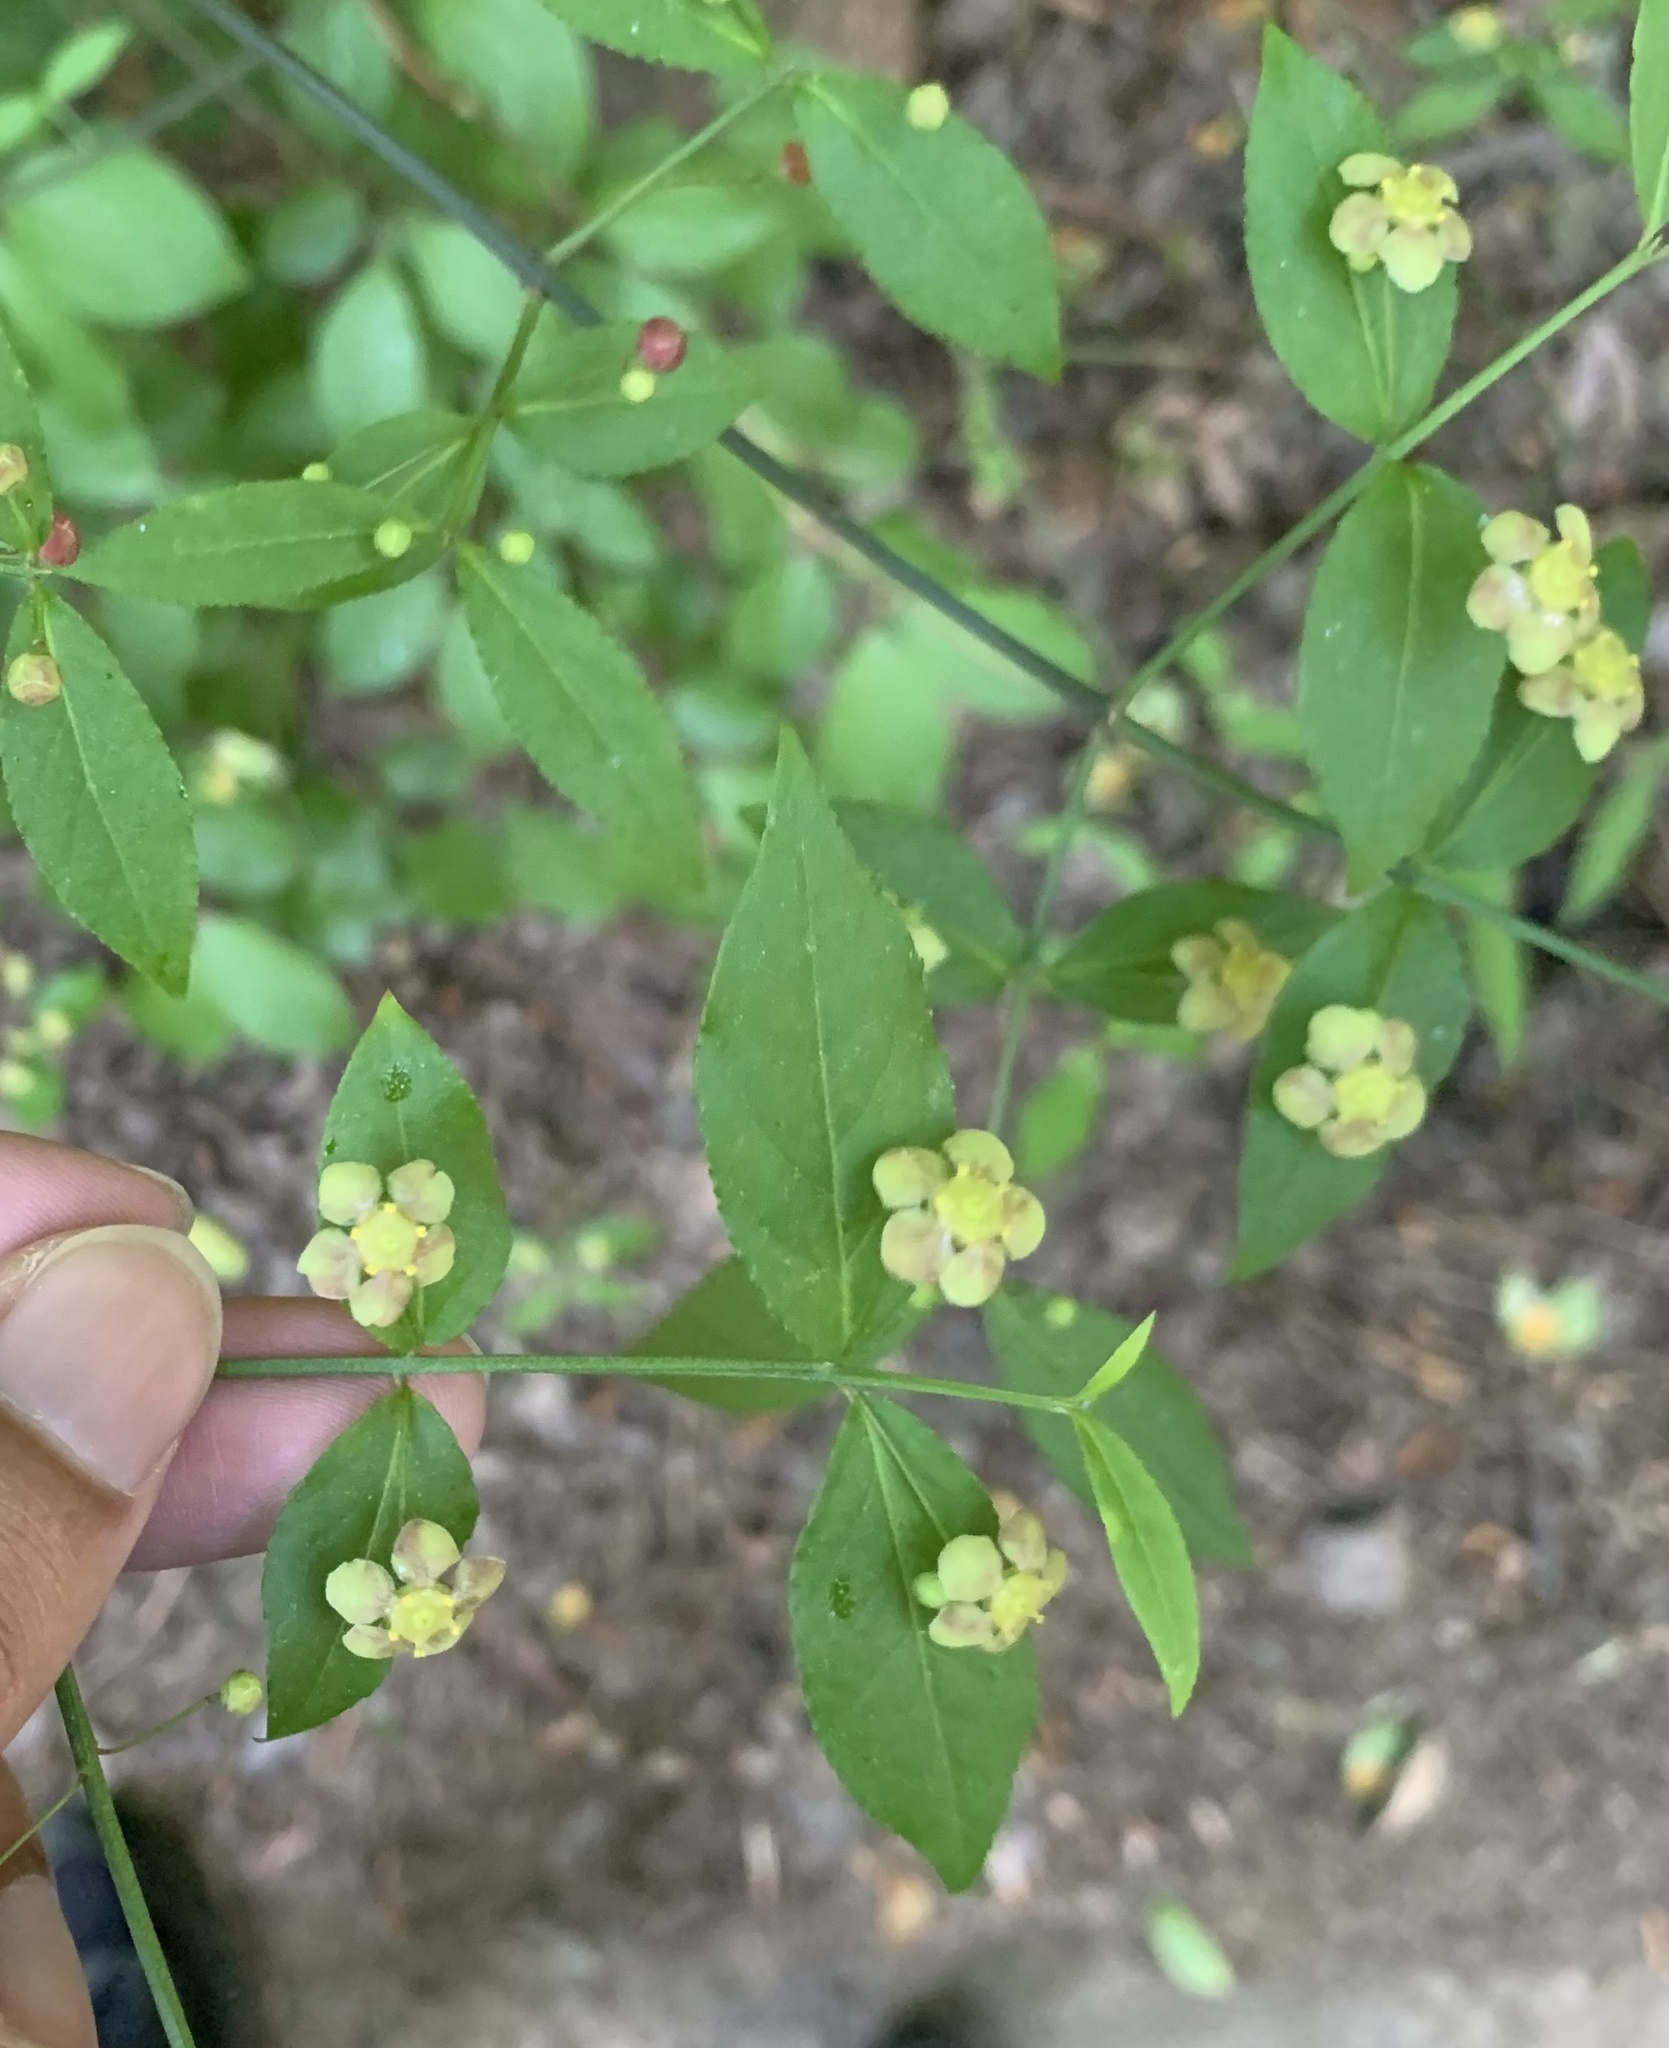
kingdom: Plantae
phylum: Tracheophyta
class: Magnoliopsida
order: Celastrales
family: Celastraceae
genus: Euonymus
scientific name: Euonymus americanus
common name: Bursting-heart
